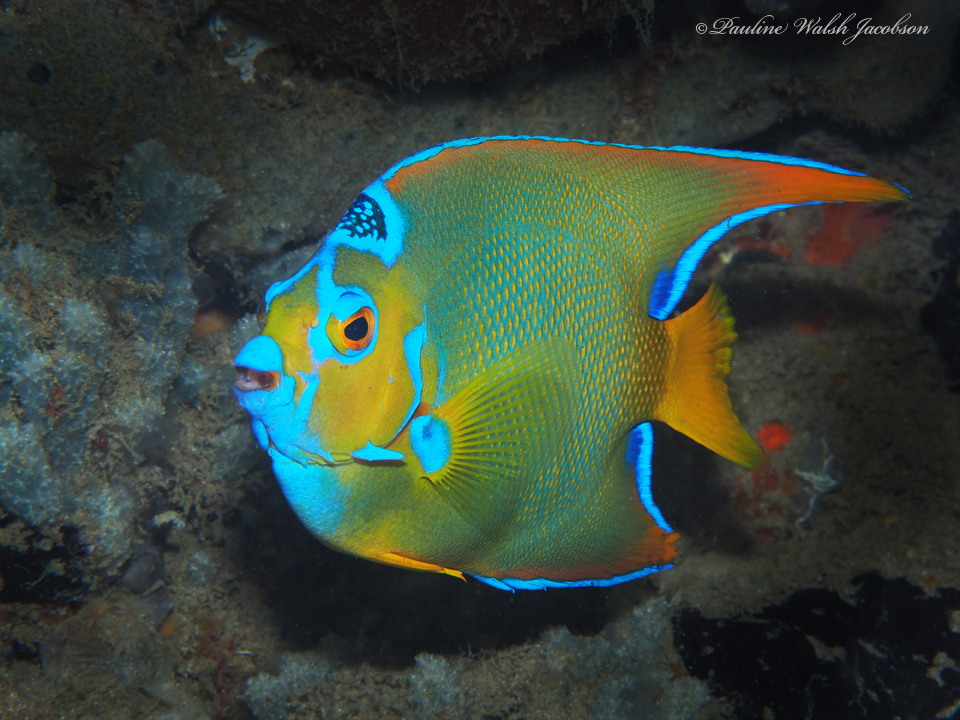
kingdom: Animalia
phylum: Chordata
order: Perciformes
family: Pomacanthidae
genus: Holacanthus
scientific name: Holacanthus ciliaris
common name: Queen angelfish
